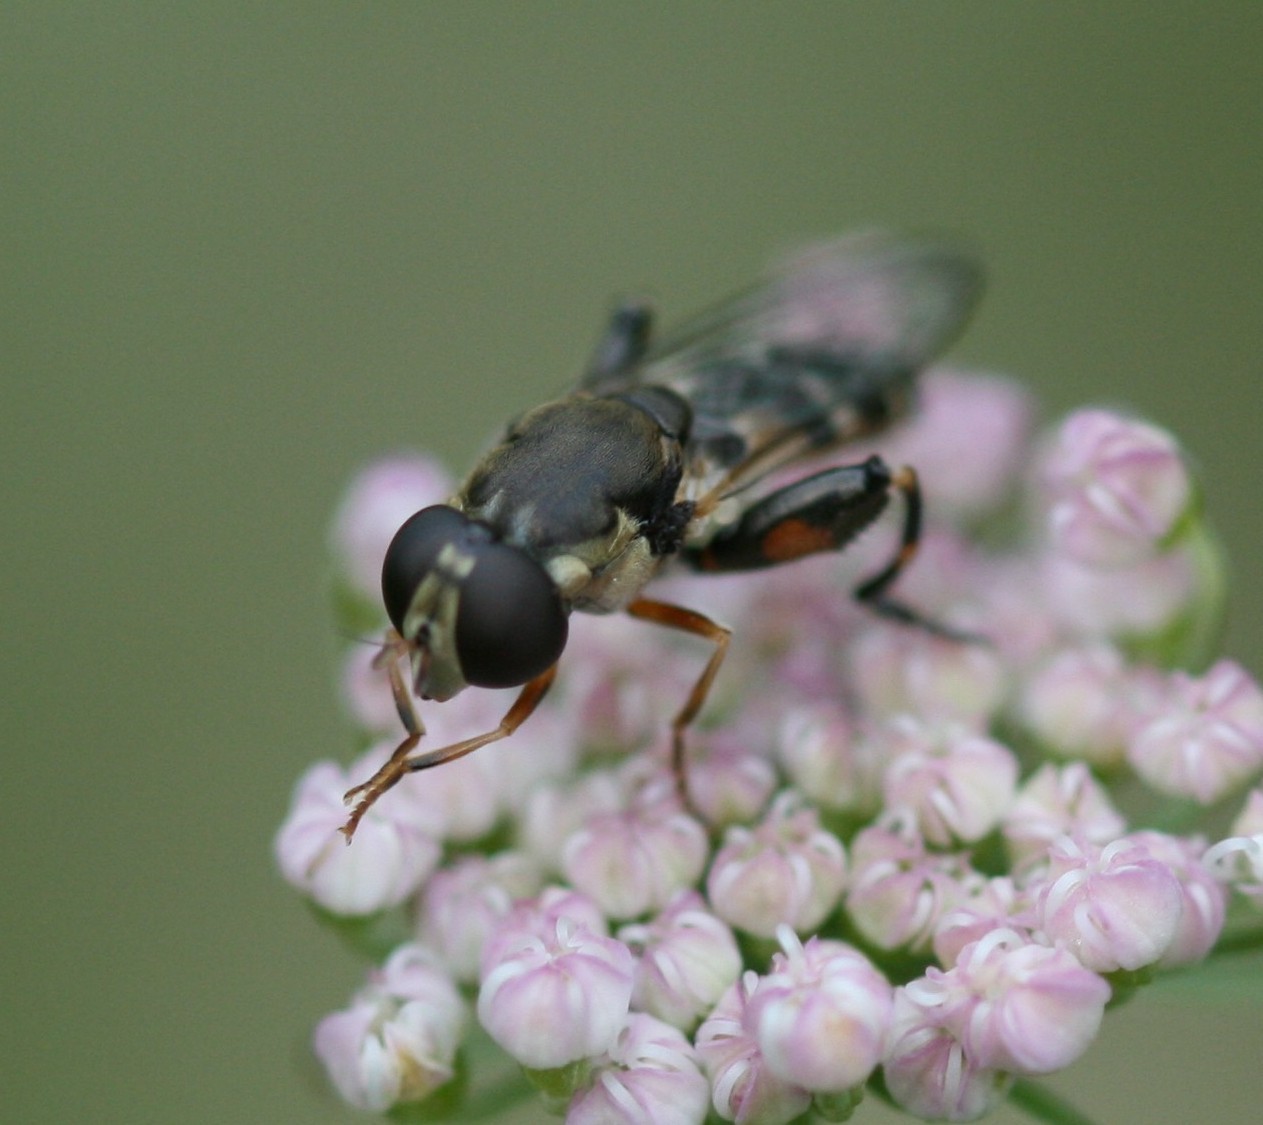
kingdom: Animalia
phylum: Arthropoda
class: Insecta
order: Diptera
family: Syrphidae
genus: Syritta
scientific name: Syritta pipiens
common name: Hover fly
